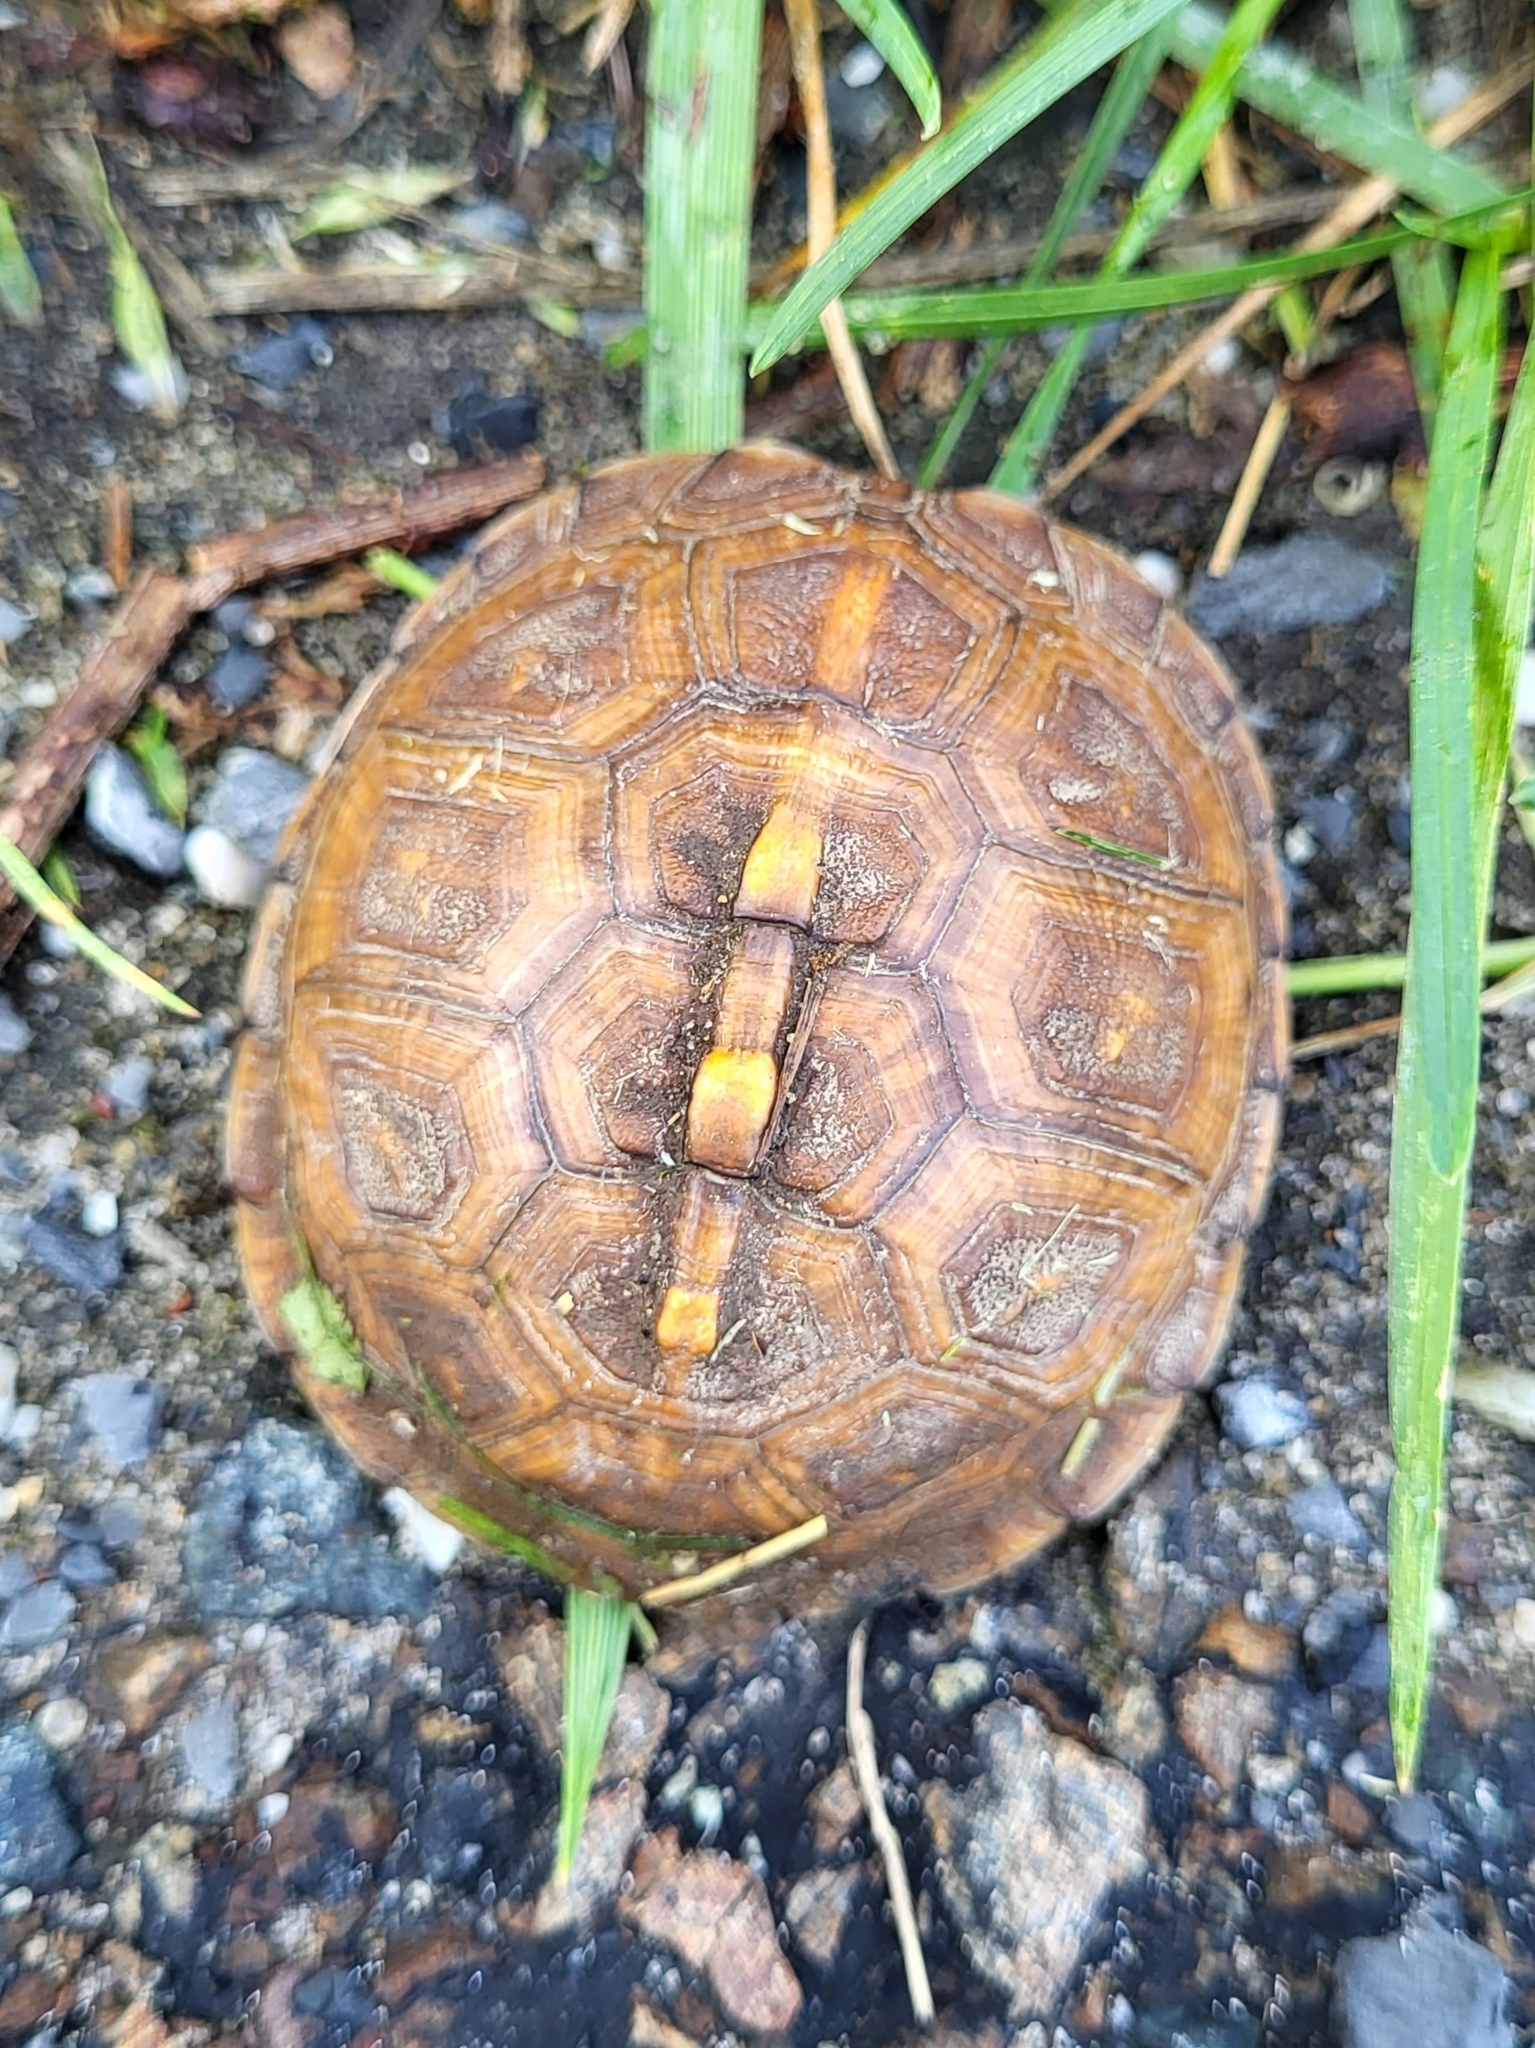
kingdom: Animalia
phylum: Chordata
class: Testudines
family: Emydidae
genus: Terrapene
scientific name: Terrapene carolina
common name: Common box turtle
